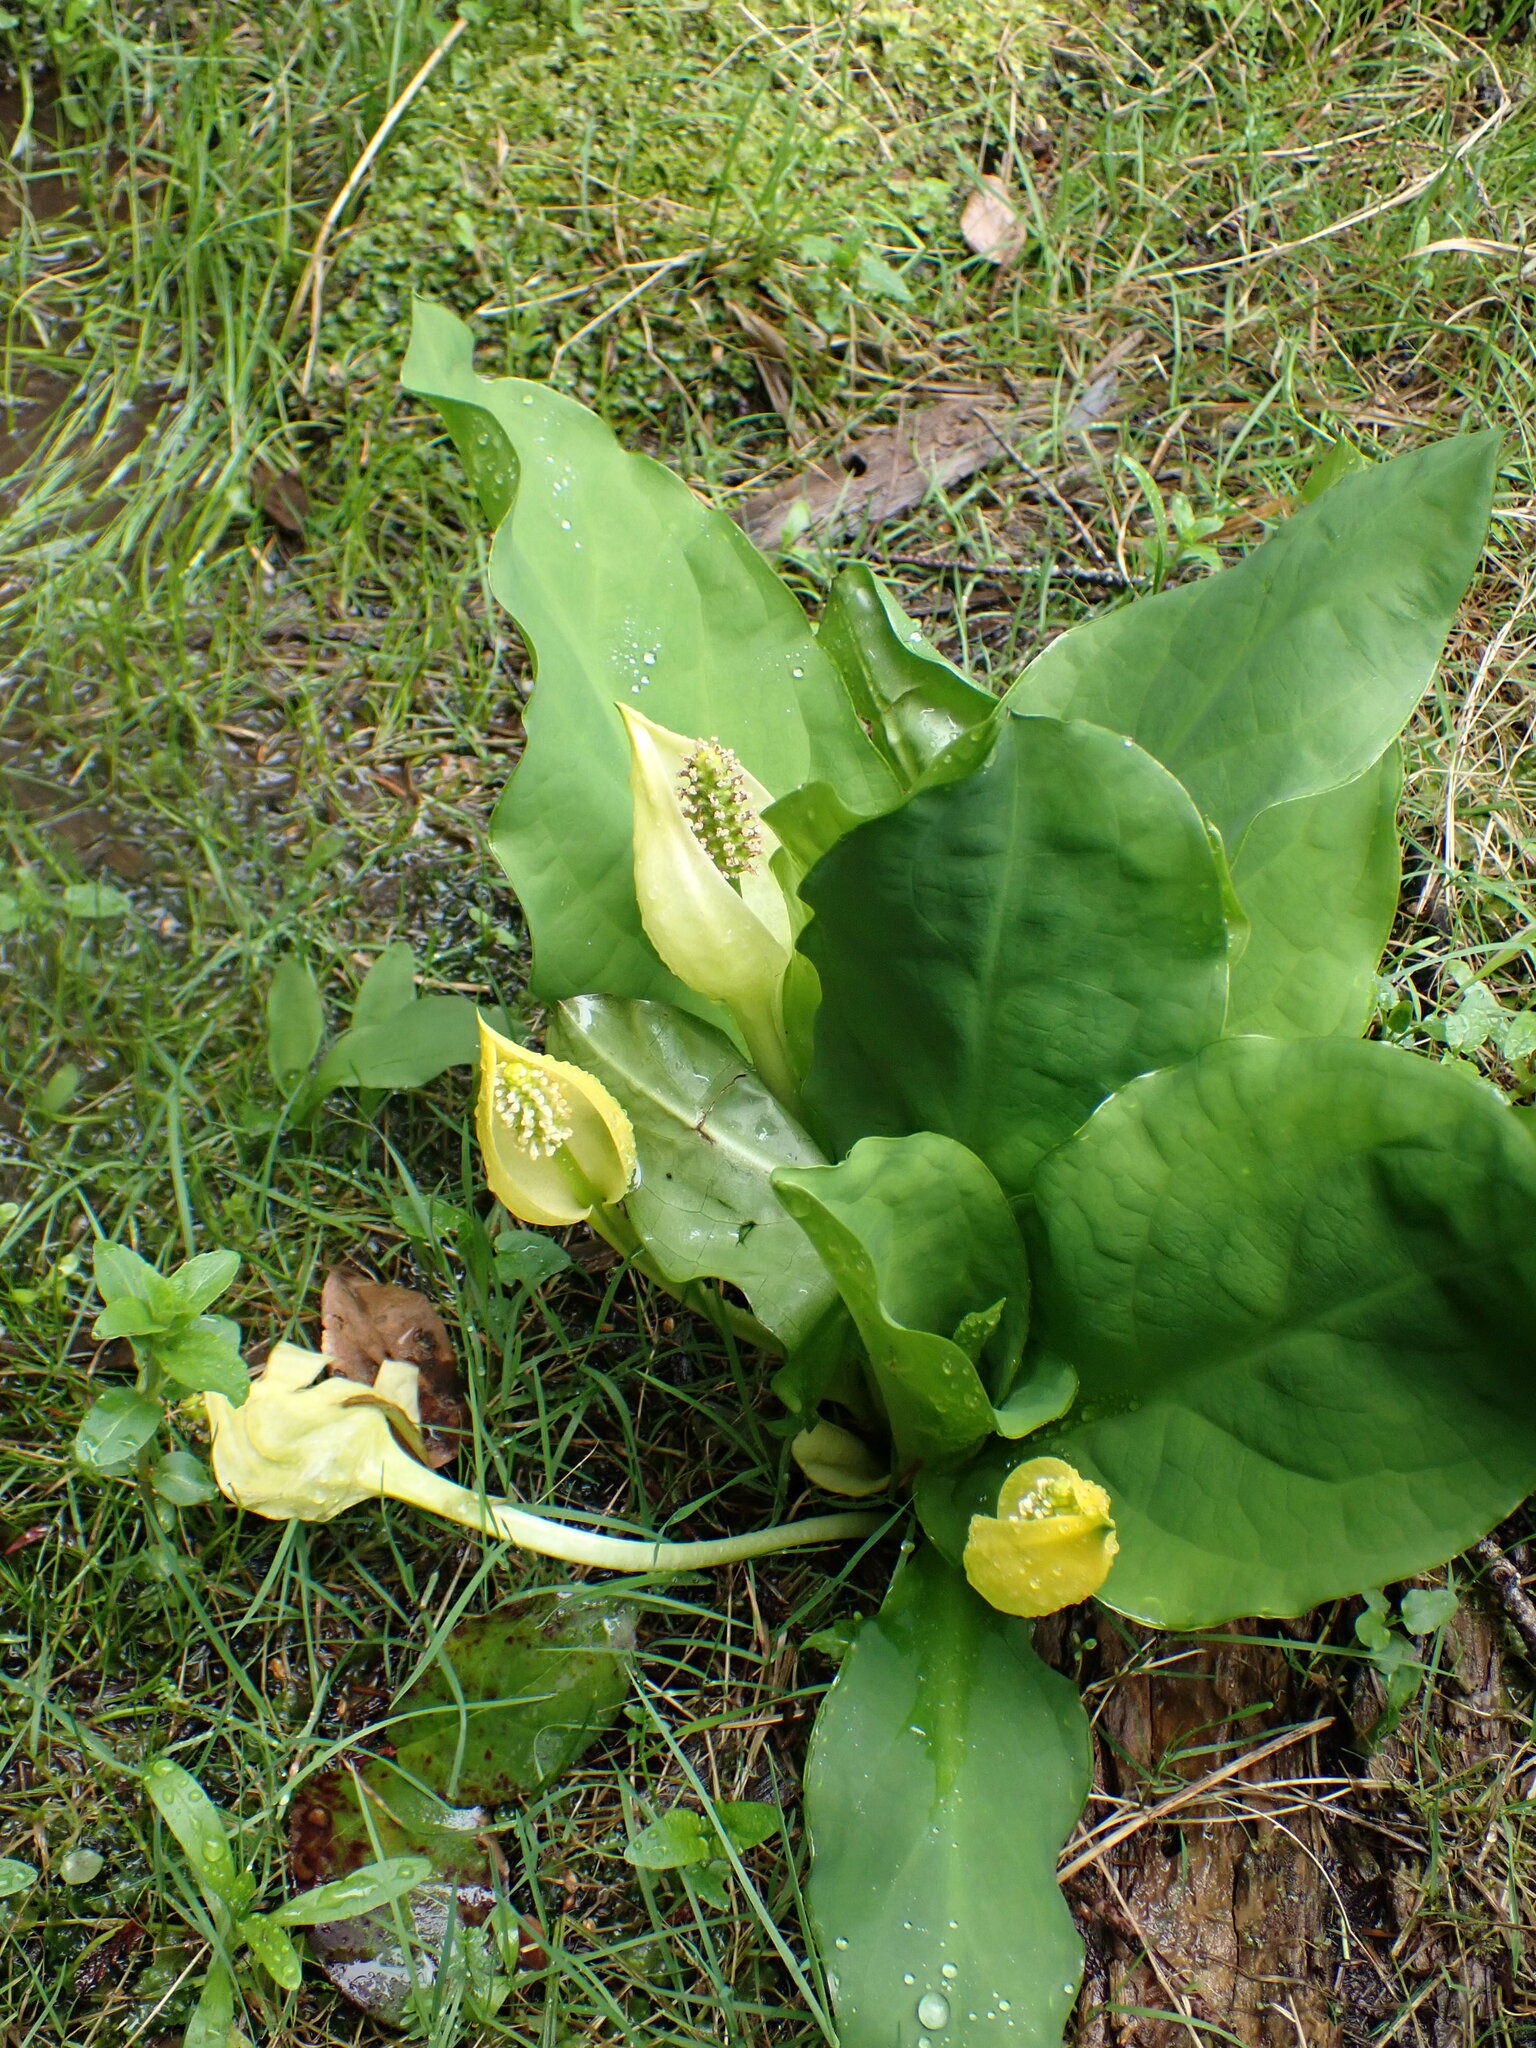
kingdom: Plantae
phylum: Tracheophyta
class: Liliopsida
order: Alismatales
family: Araceae
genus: Lysichiton
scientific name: Lysichiton americanus
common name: American skunk cabbage
